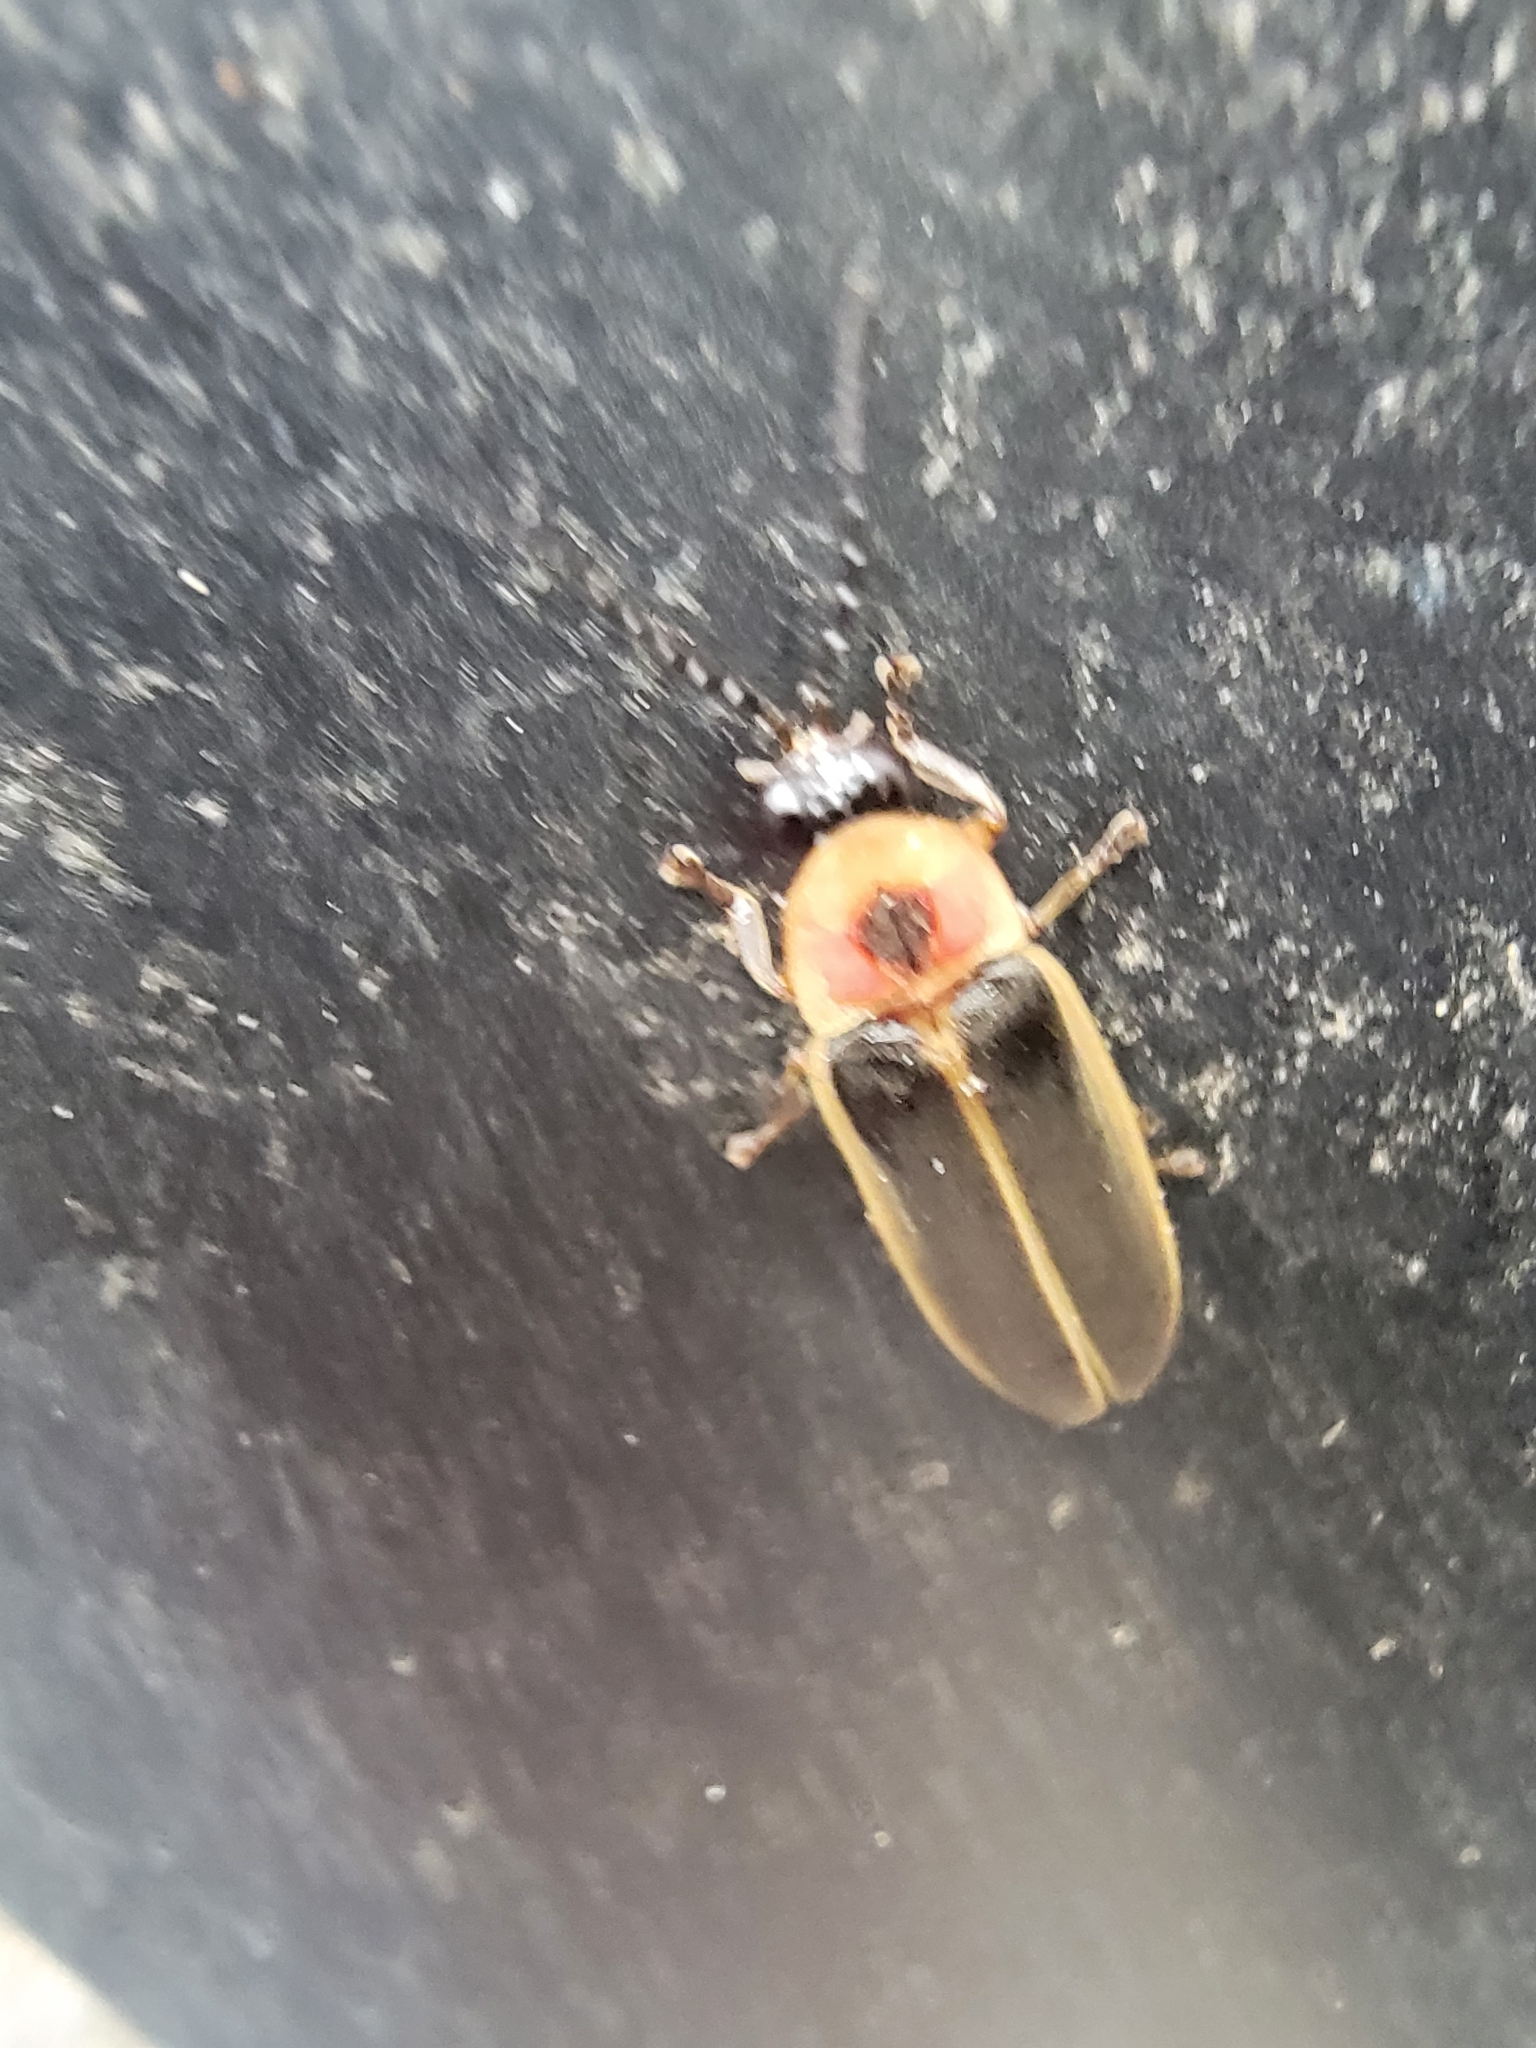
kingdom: Animalia
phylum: Arthropoda
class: Insecta
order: Coleoptera
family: Lampyridae
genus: Photinus
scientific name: Photinus pyralis
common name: Big dipper firefly
